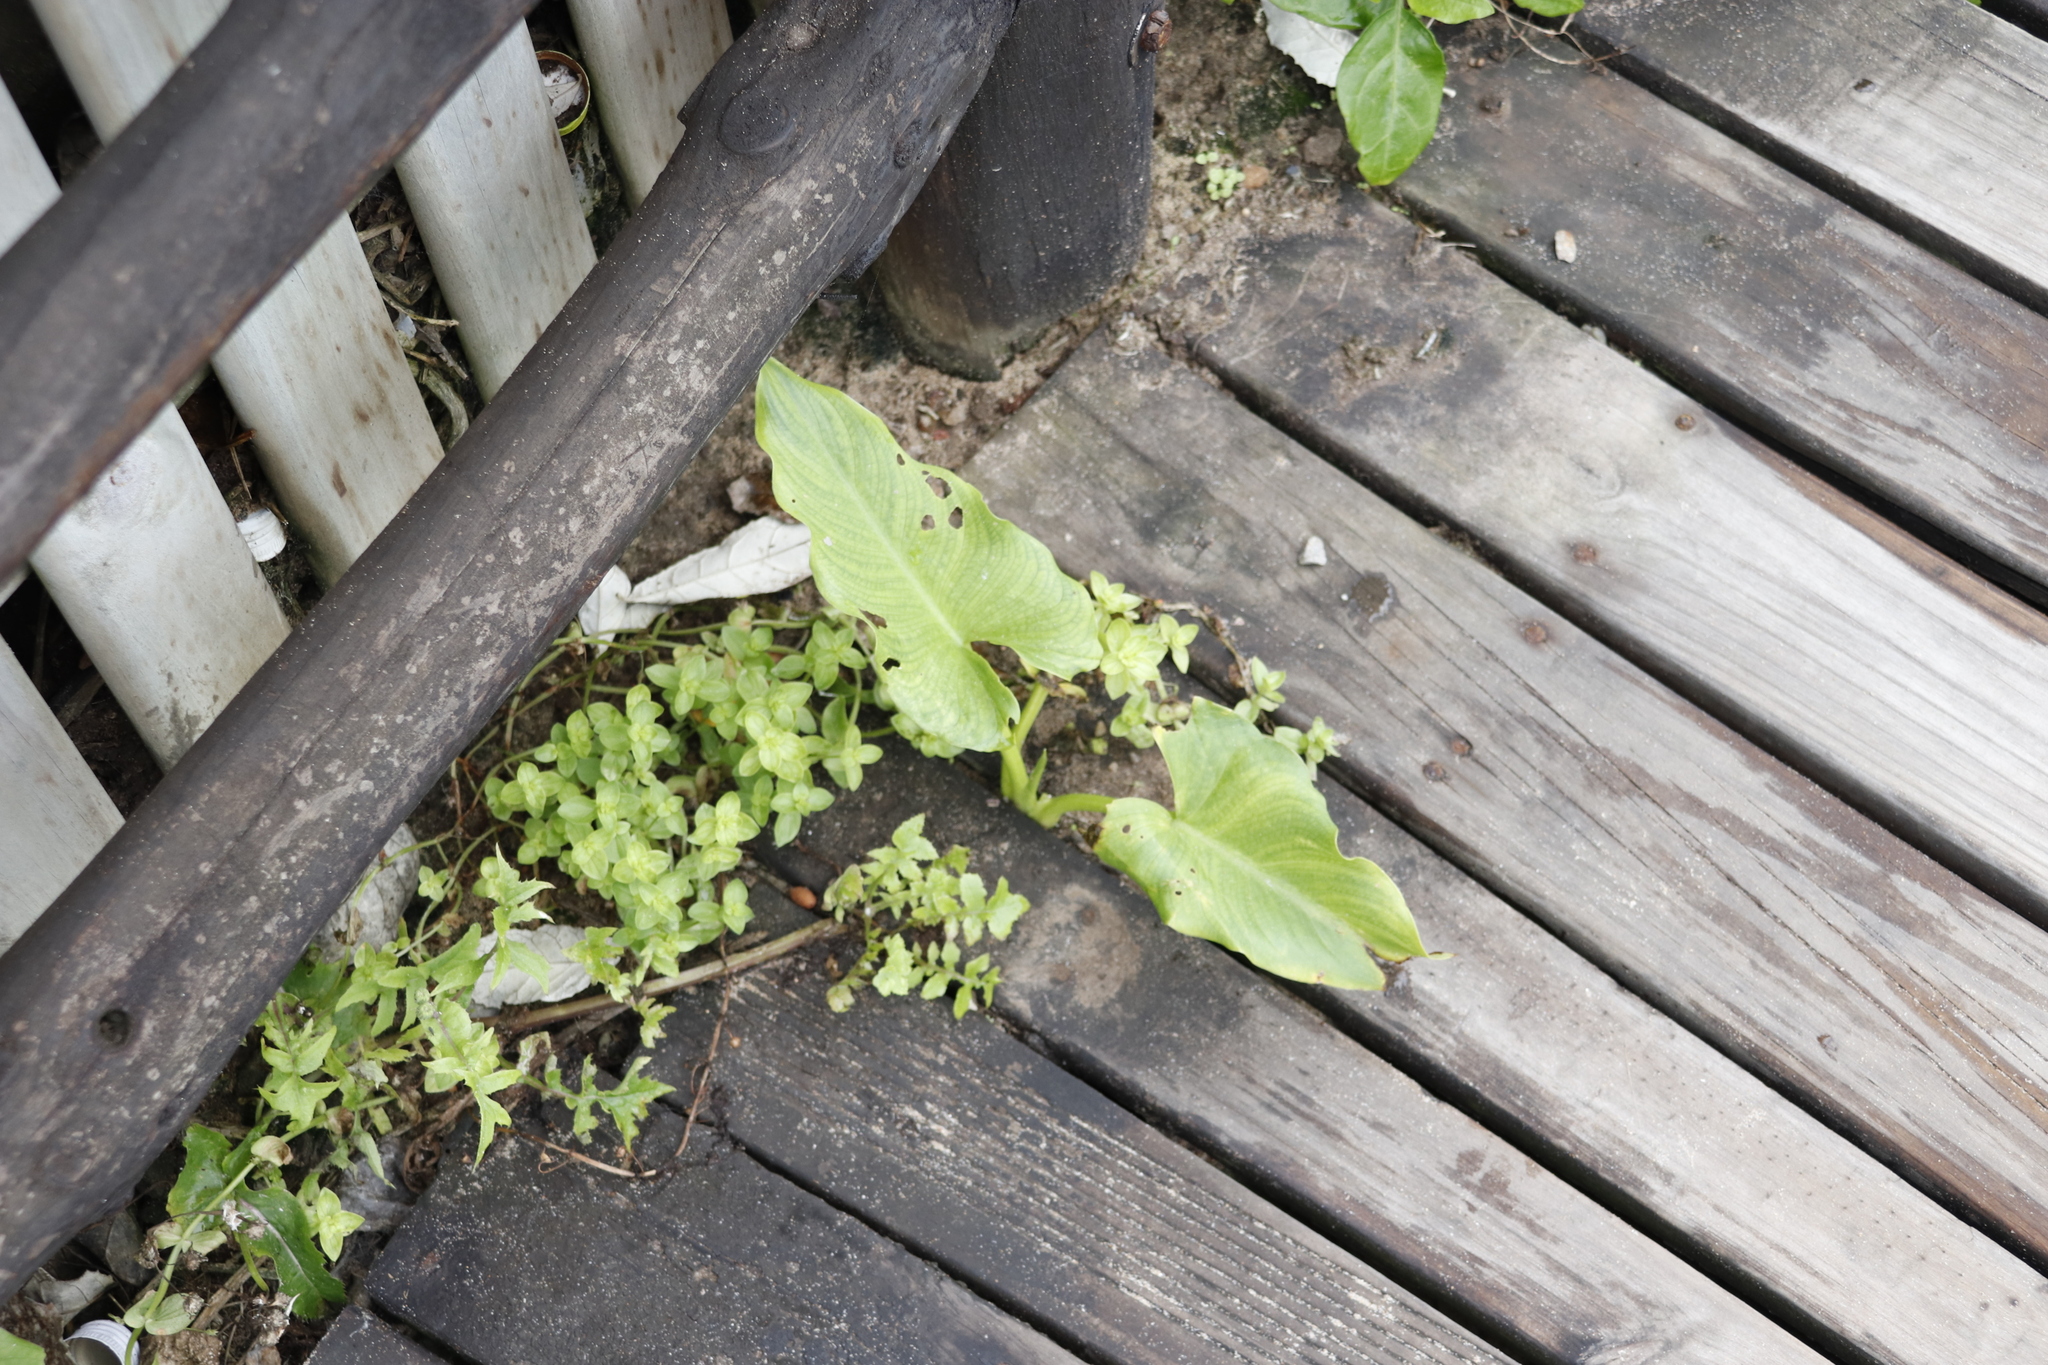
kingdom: Plantae
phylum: Tracheophyta
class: Liliopsida
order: Alismatales
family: Araceae
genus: Zantedeschia
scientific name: Zantedeschia aethiopica
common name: Altar-lily
